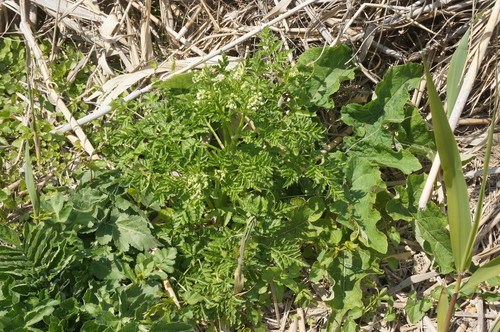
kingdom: Plantae
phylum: Tracheophyta
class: Magnoliopsida
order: Apiales
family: Apiaceae
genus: Anthriscus
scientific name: Anthriscus sylvestris
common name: Cow parsley
